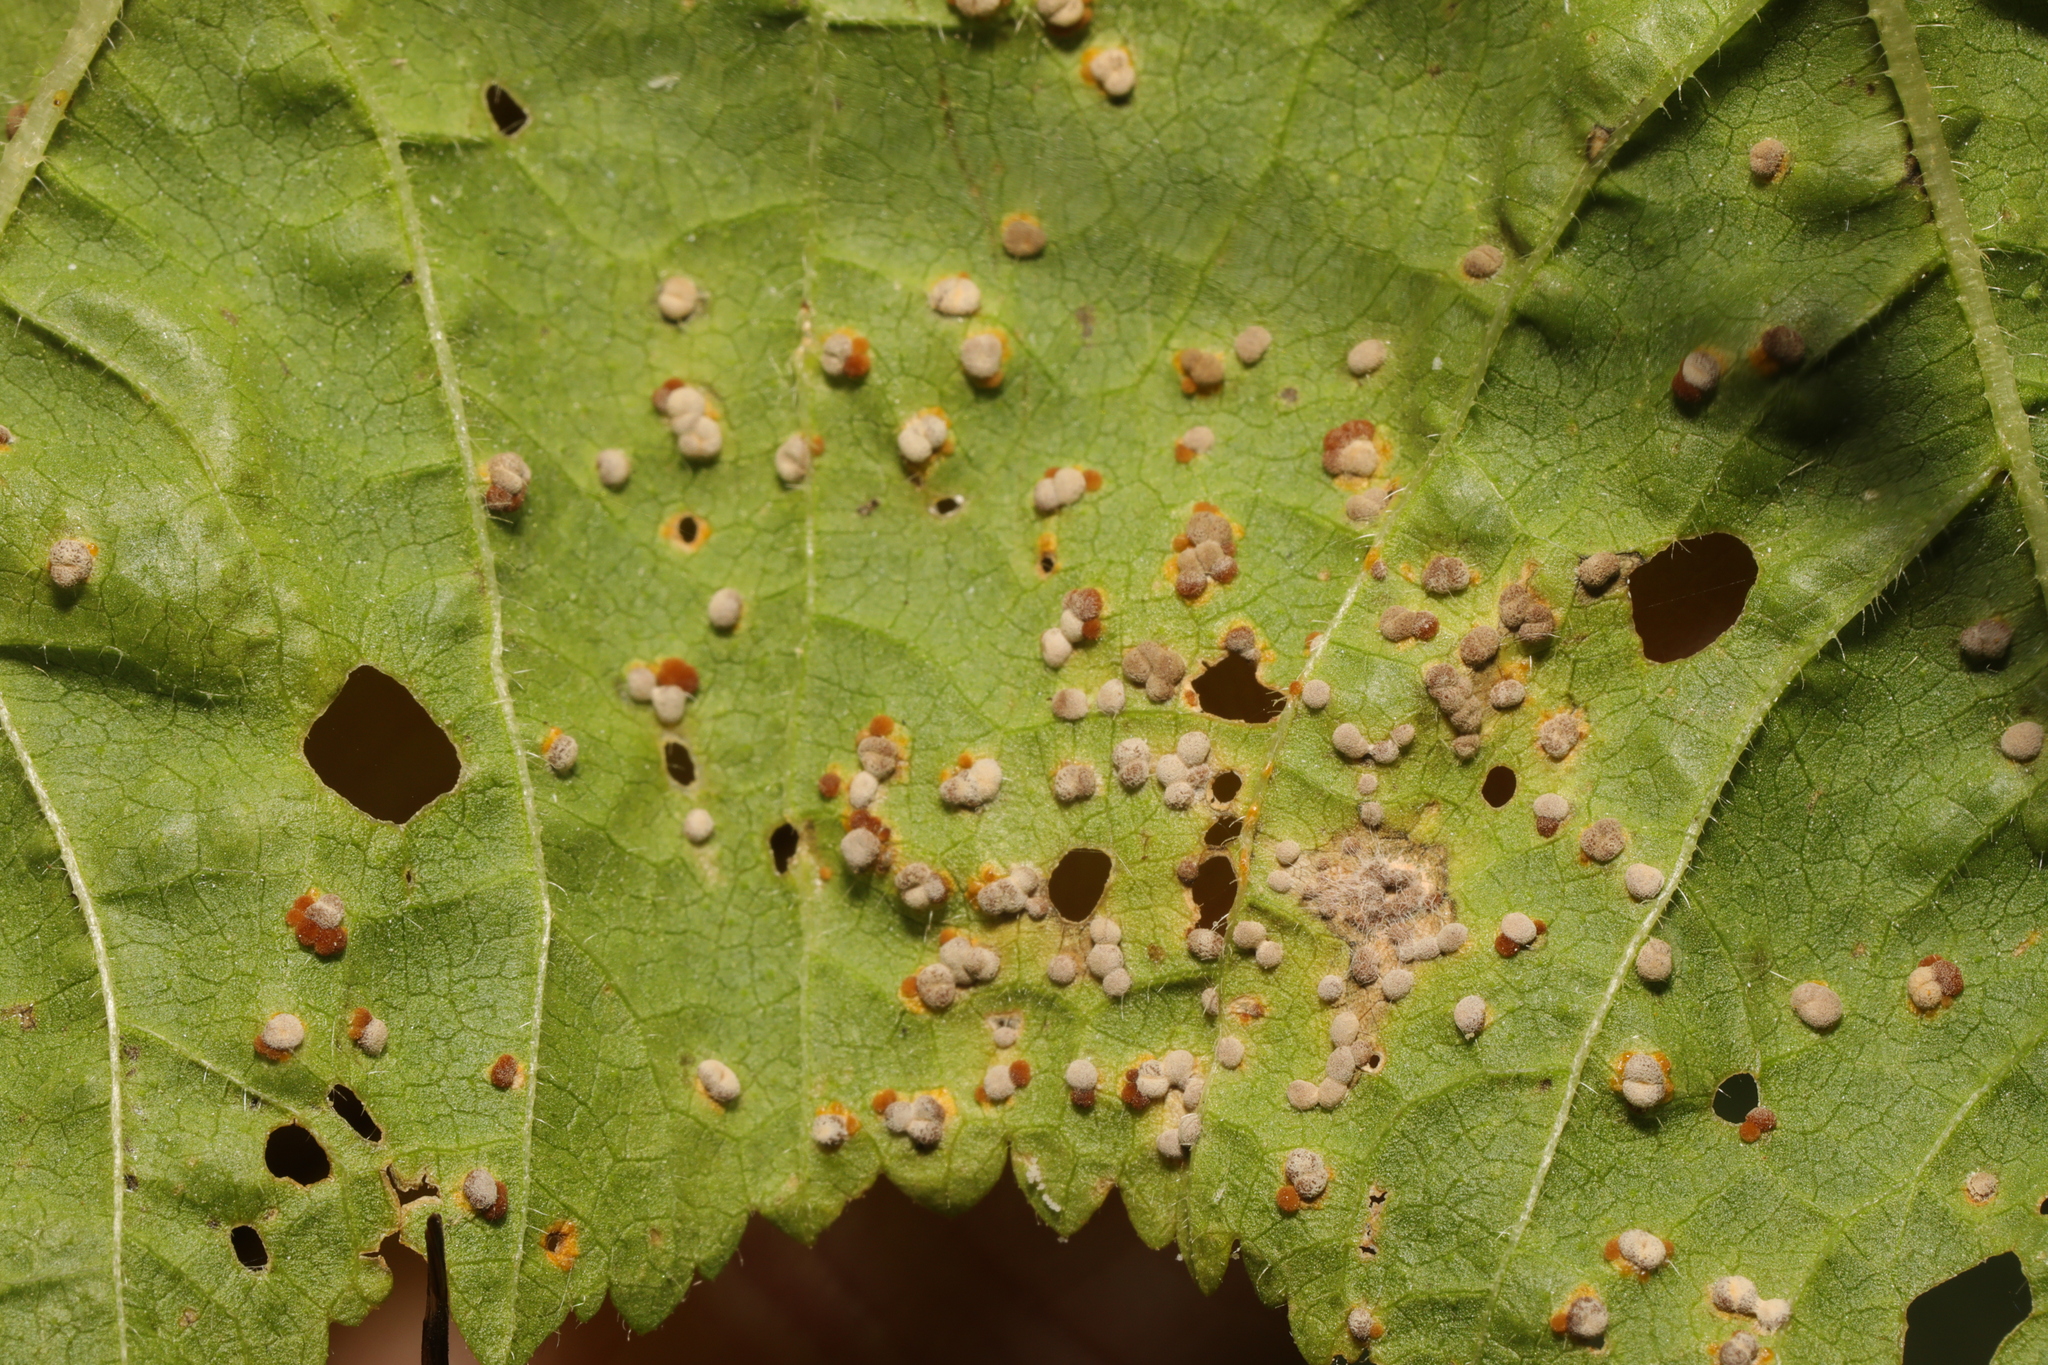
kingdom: Fungi
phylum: Basidiomycota
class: Pucciniomycetes
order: Pucciniales
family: Pucciniaceae
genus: Puccinia
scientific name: Puccinia malvacearum
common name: Hollyhock rust
